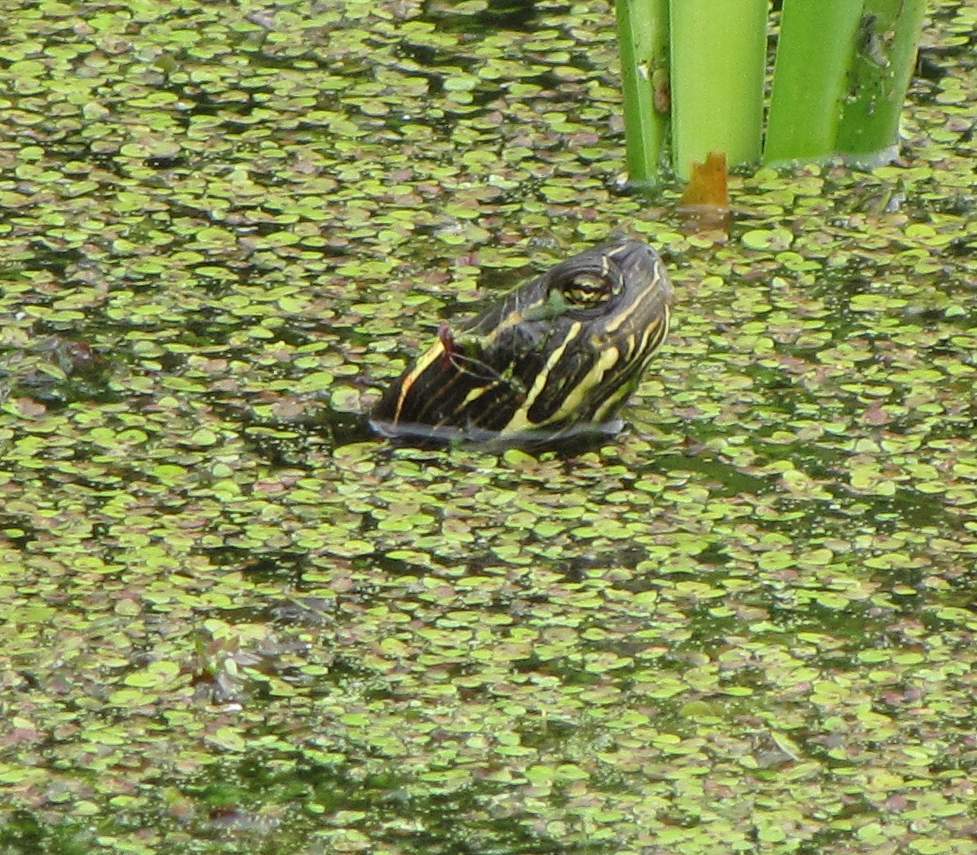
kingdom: Animalia
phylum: Chordata
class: Testudines
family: Emydidae
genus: Chrysemys
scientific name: Chrysemys picta
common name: Painted turtle
